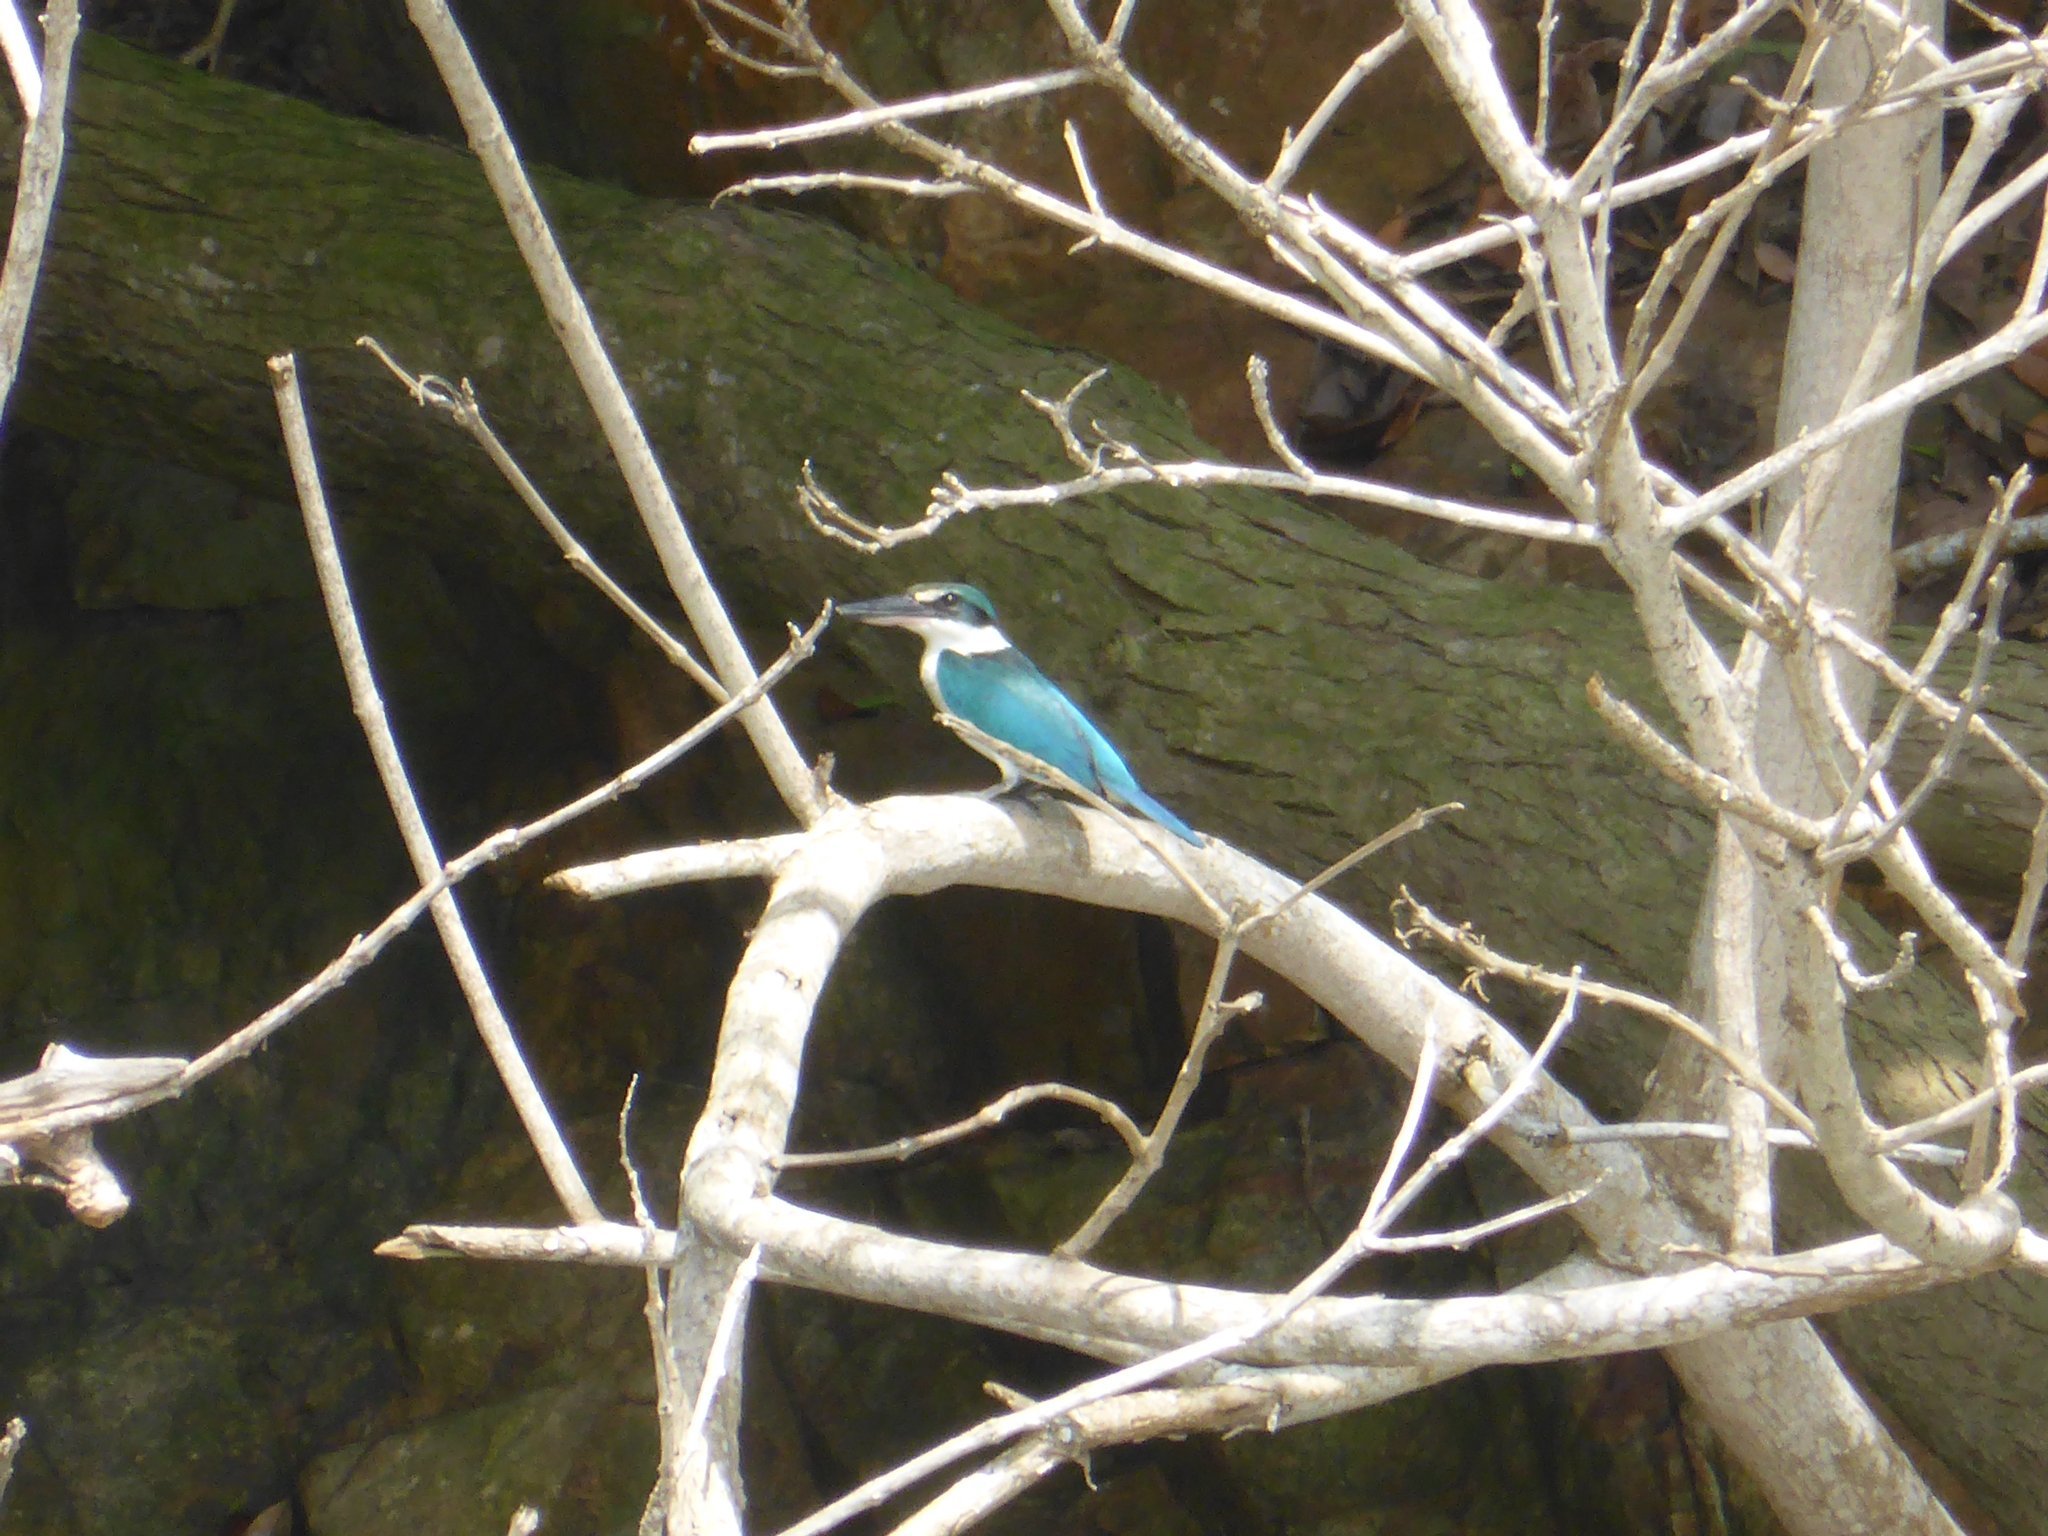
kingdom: Animalia
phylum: Chordata
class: Aves
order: Coraciiformes
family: Alcedinidae
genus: Todiramphus
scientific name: Todiramphus chloris
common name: Collared kingfisher
